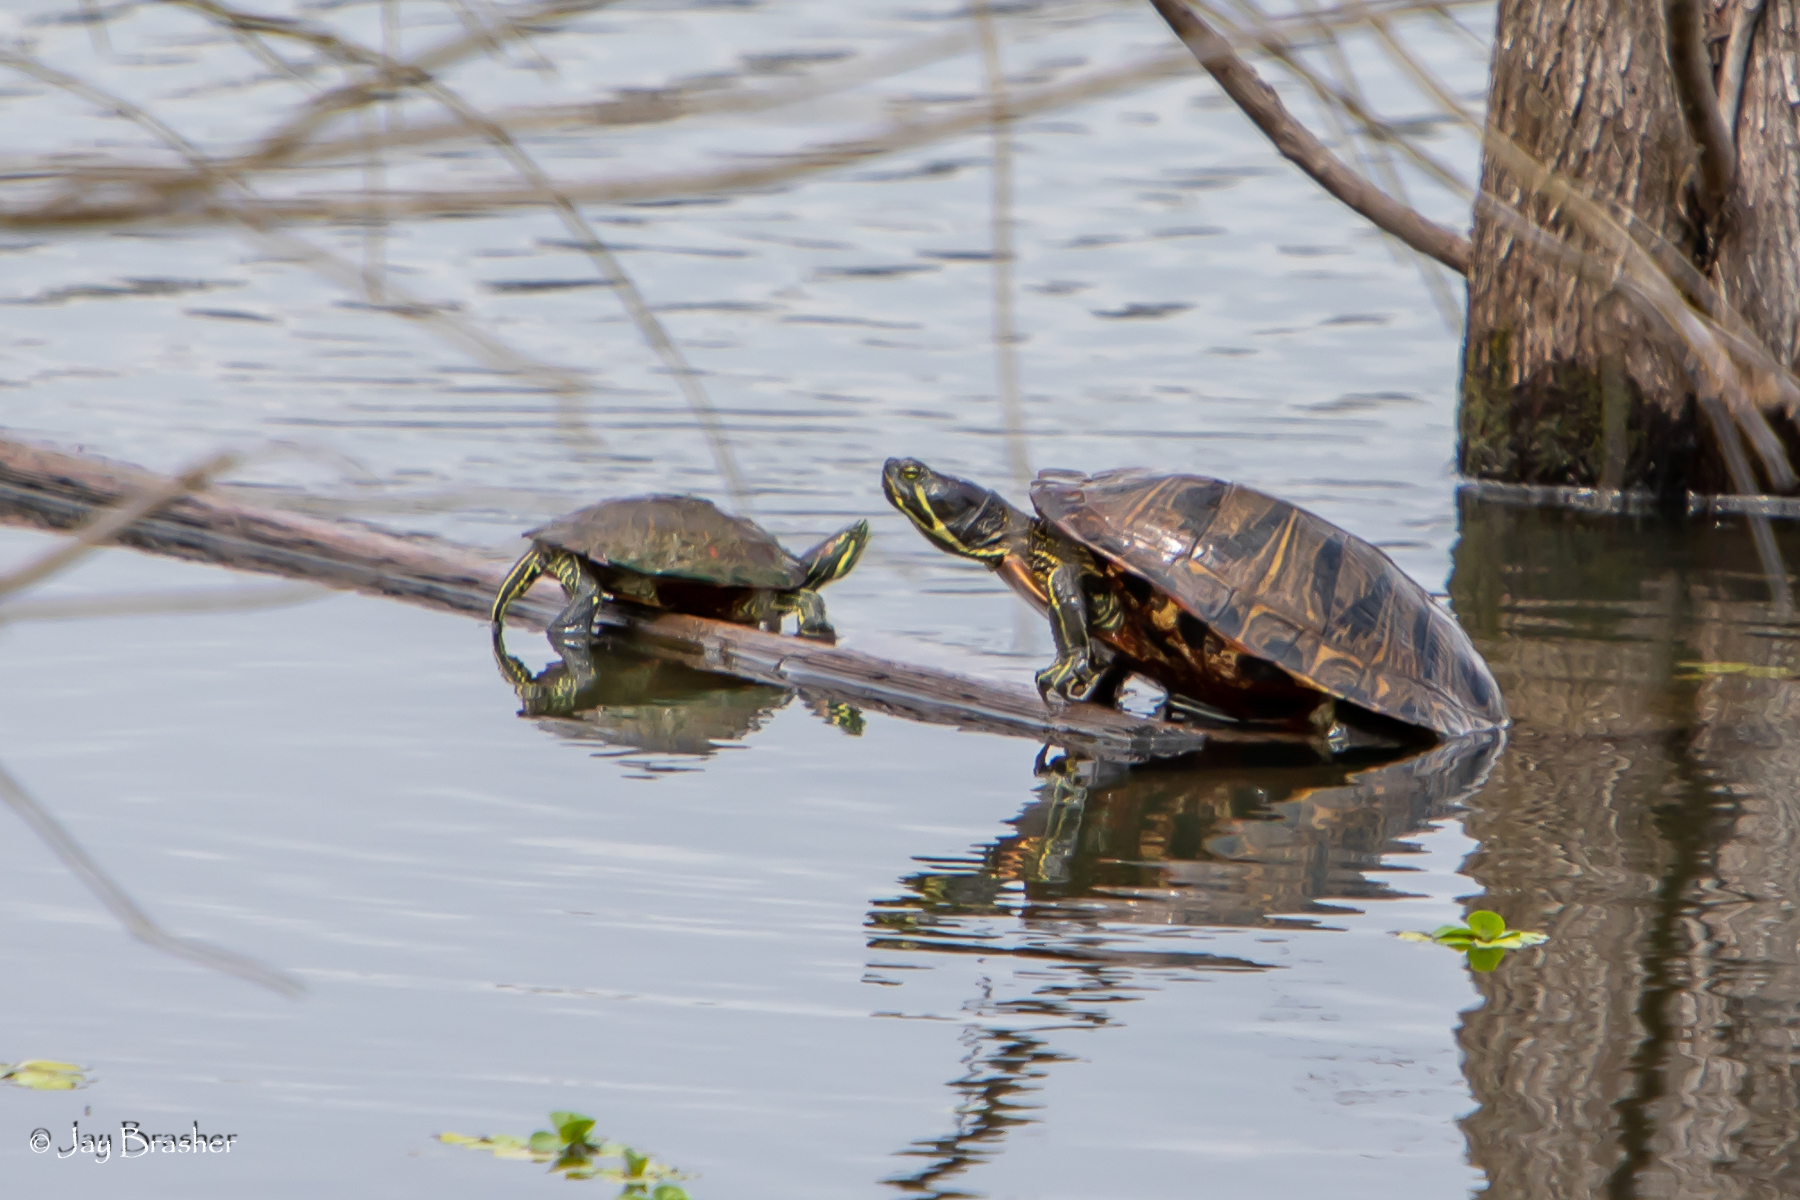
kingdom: Animalia
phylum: Chordata
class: Testudines
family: Emydidae
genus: Trachemys
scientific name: Trachemys scripta
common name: Slider
